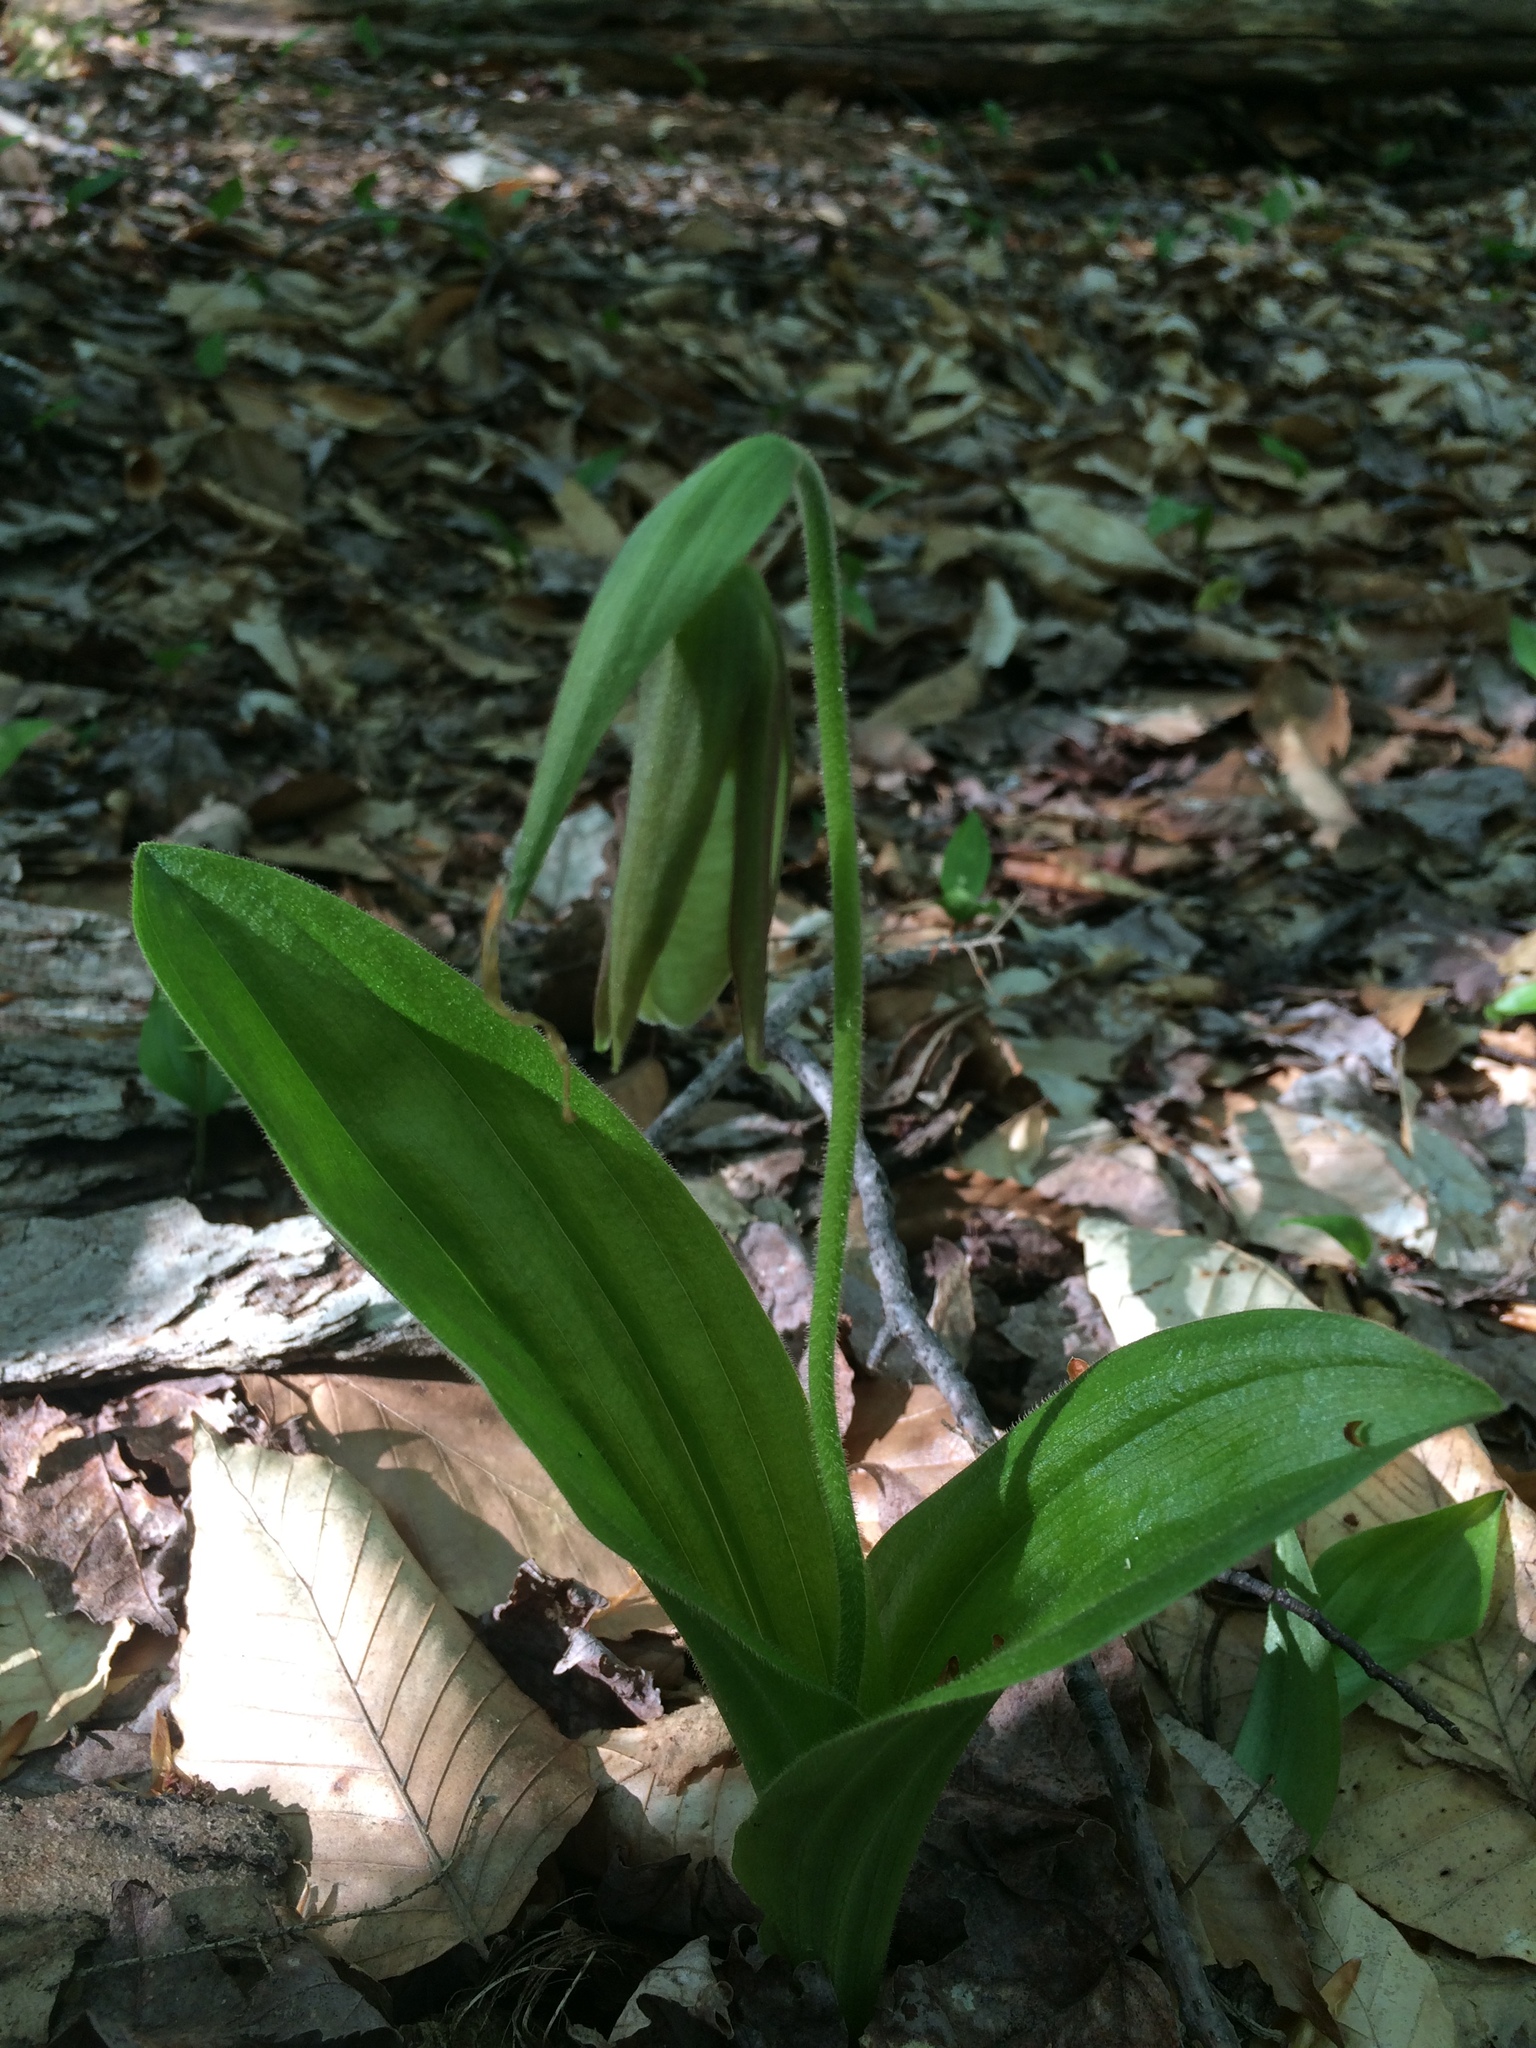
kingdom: Plantae
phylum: Tracheophyta
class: Liliopsida
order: Asparagales
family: Orchidaceae
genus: Cypripedium
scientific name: Cypripedium acaule
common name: Pink lady's-slipper
